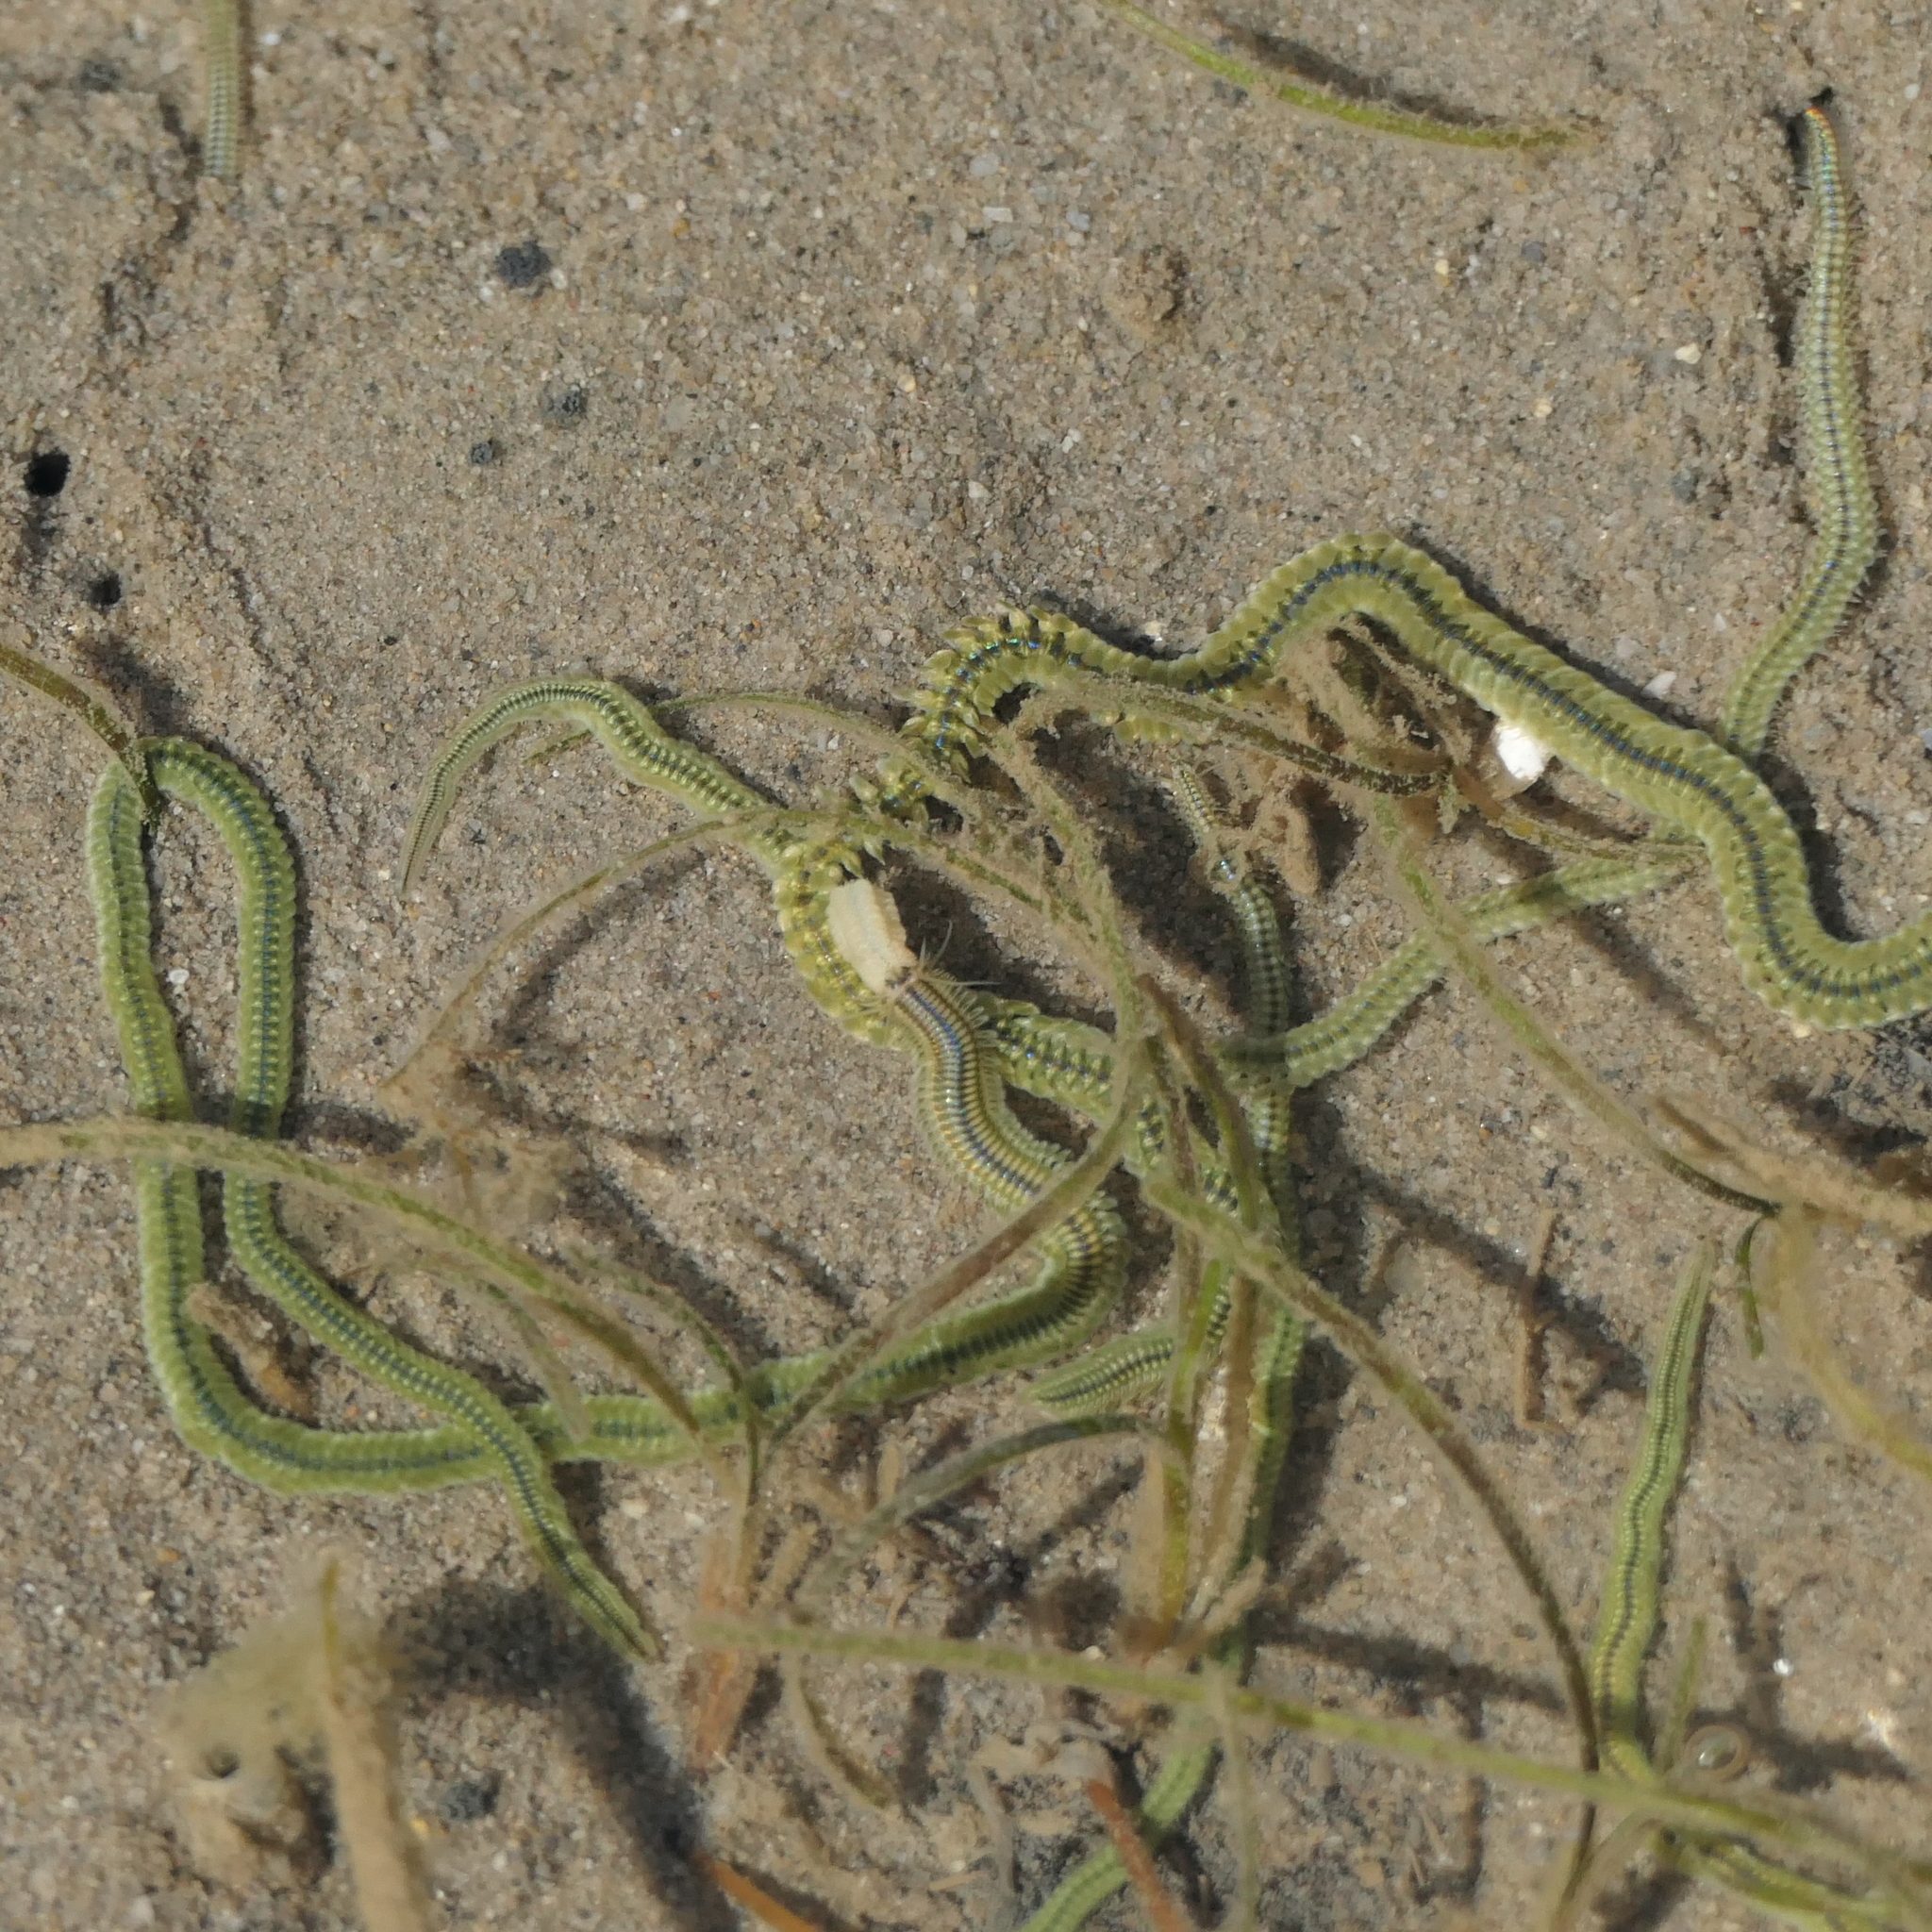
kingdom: Animalia
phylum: Annelida
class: Polychaeta
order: Phyllodocida
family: Phyllodocidae
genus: Phyllodoce
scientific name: Phyllodoce novaehollandiae
